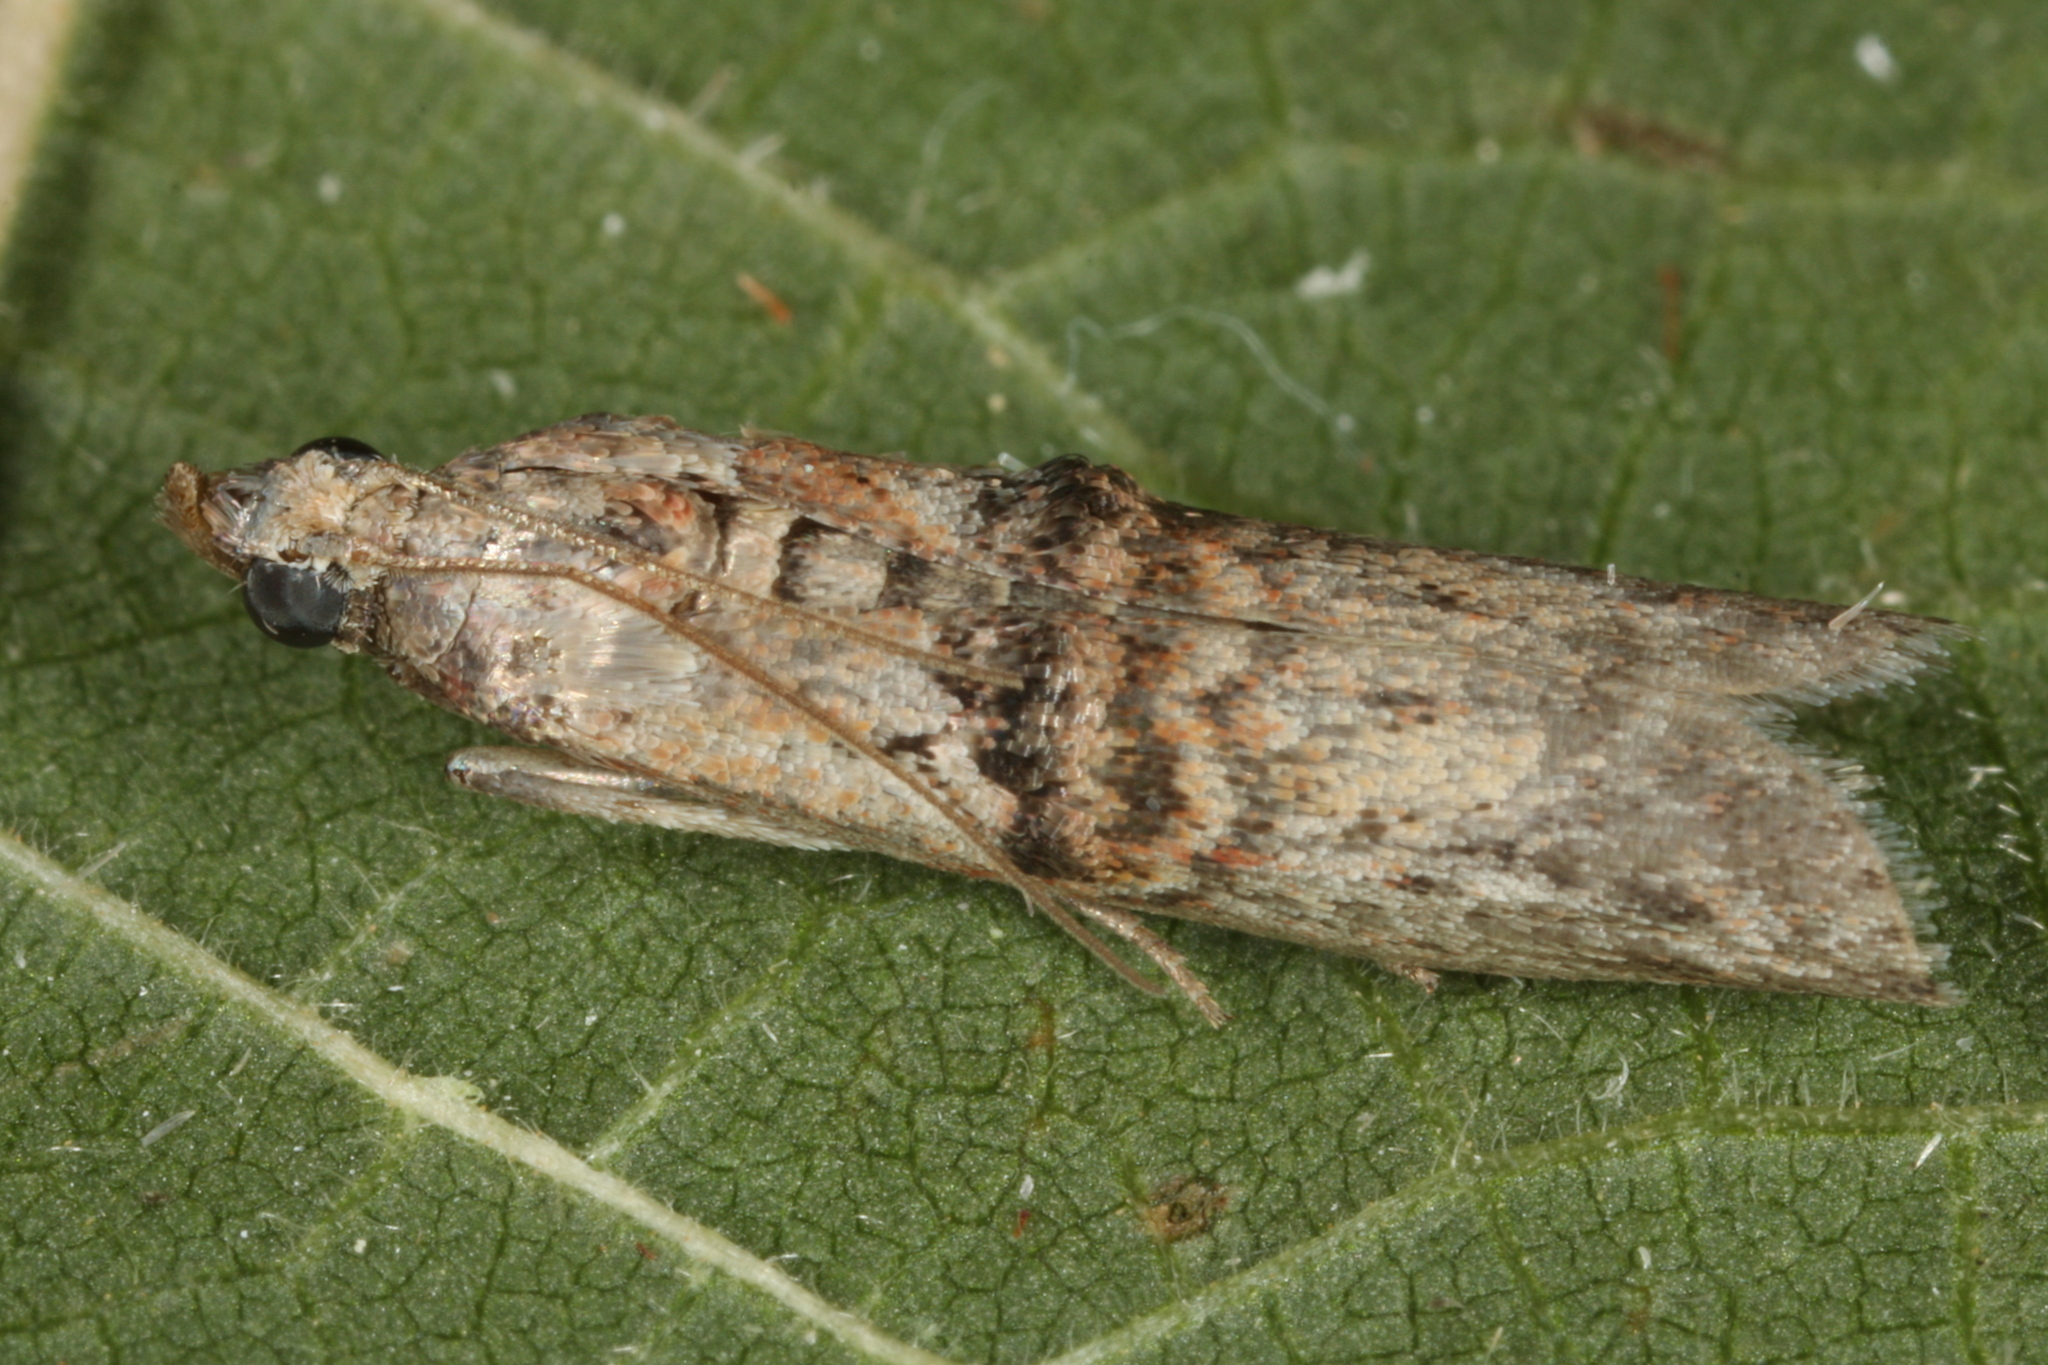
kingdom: Animalia
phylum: Arthropoda
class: Insecta
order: Lepidoptera
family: Pyralidae
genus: Nephopterix
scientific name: Nephopterix angustella
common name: Spindle knot-horn
